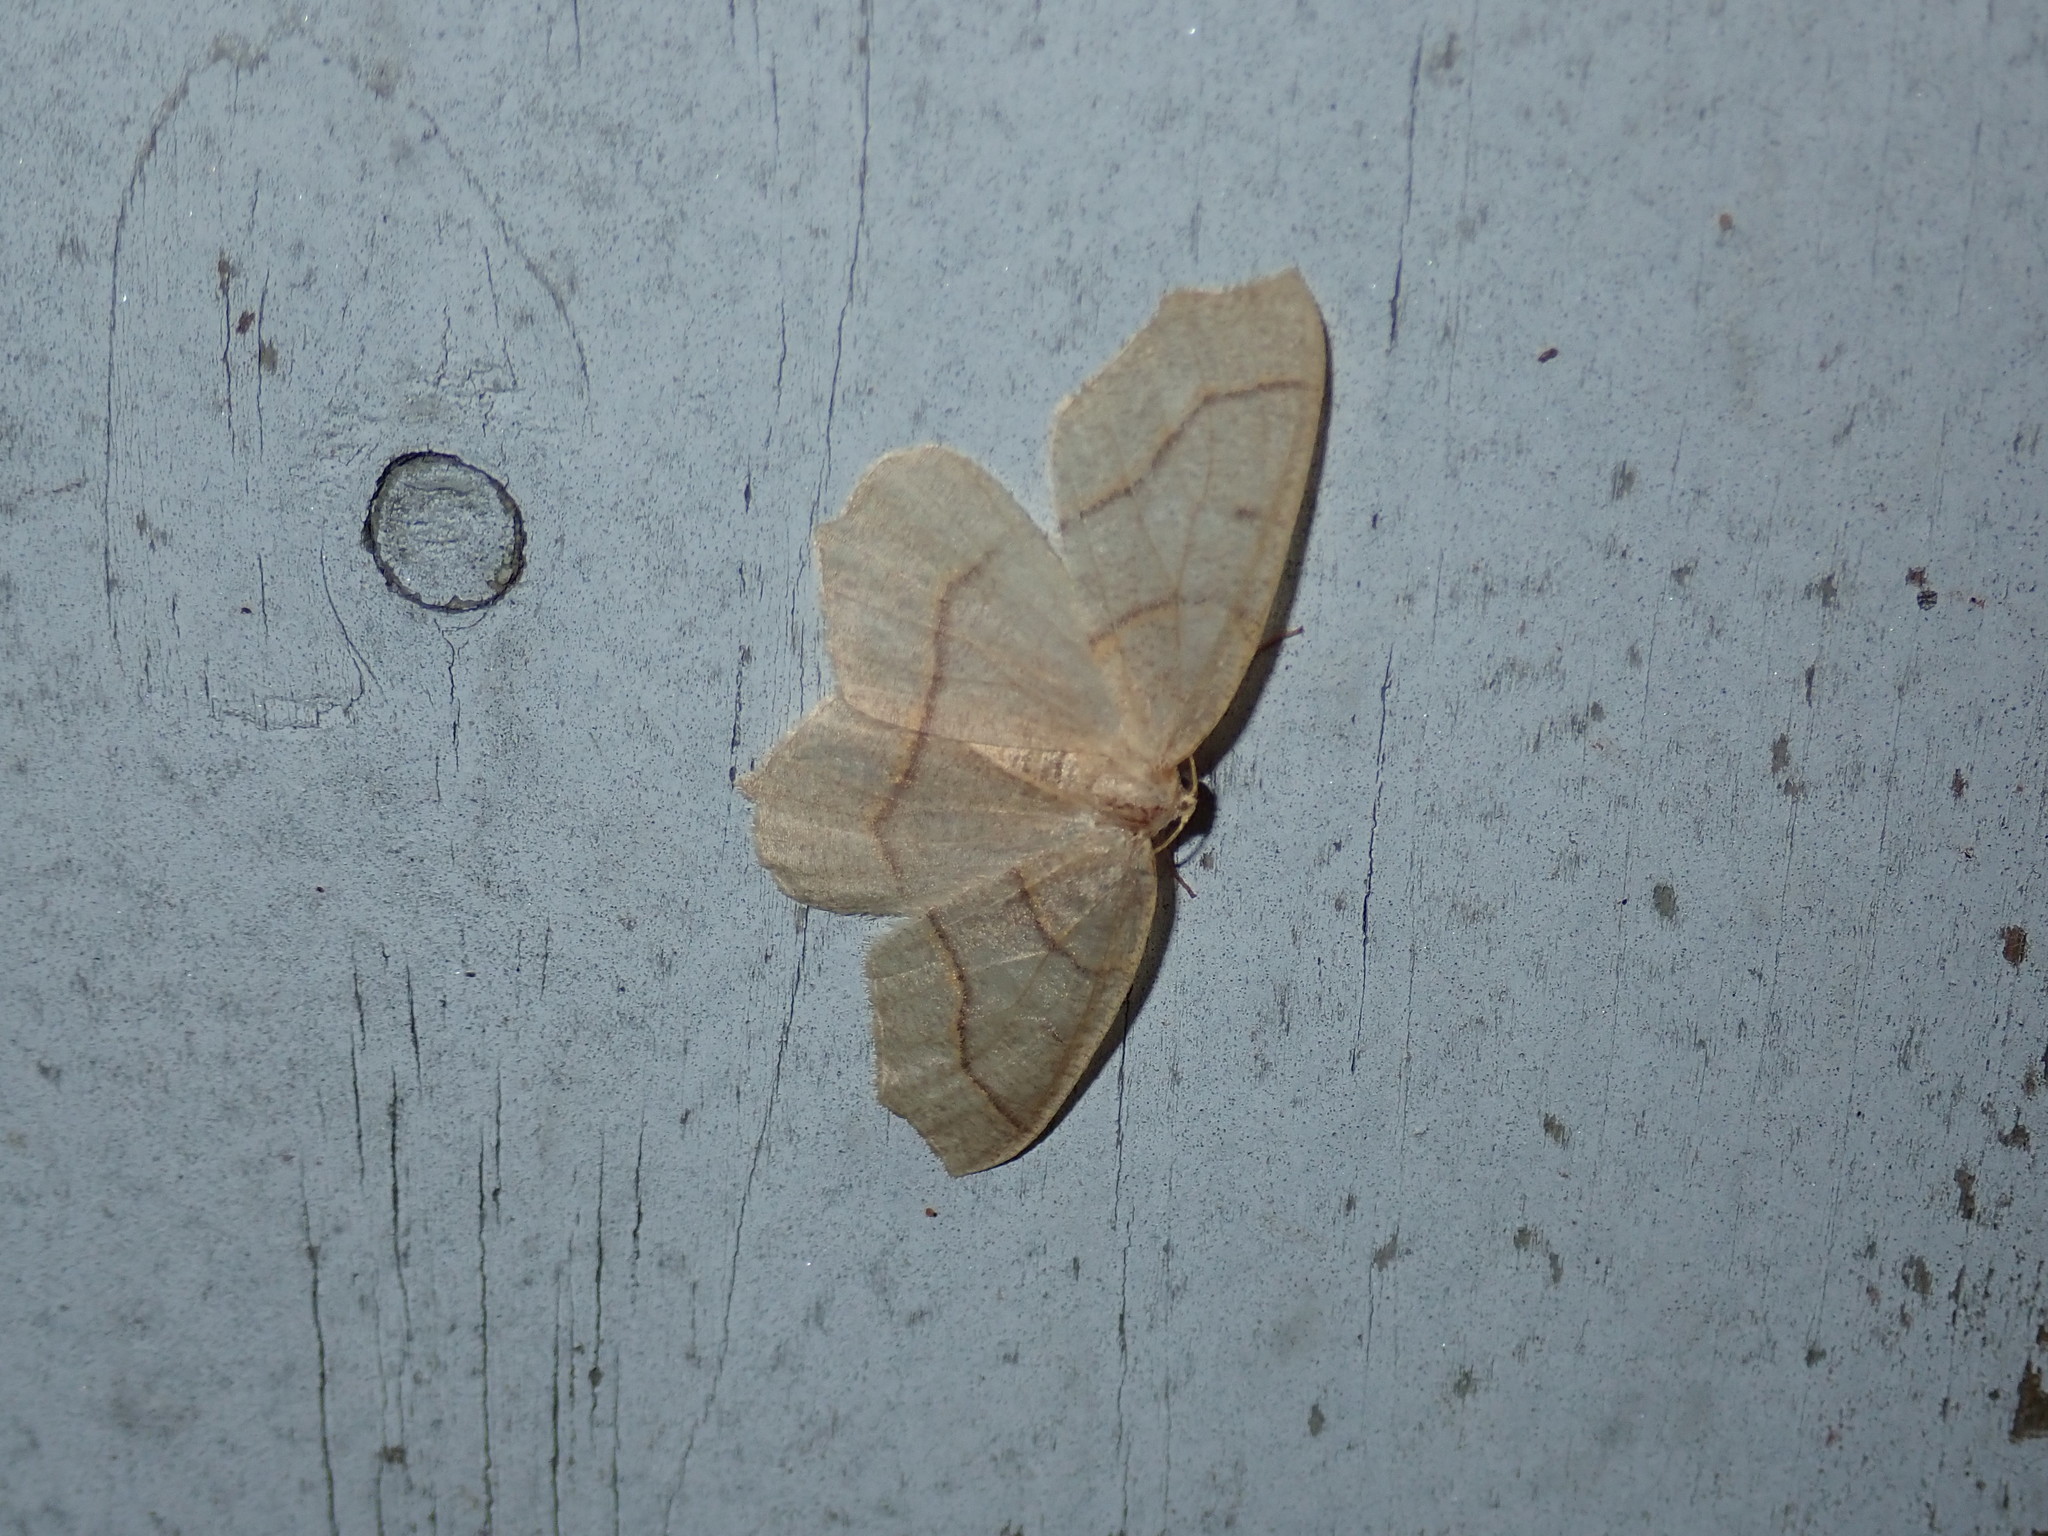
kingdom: Animalia
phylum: Arthropoda
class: Insecta
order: Lepidoptera
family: Geometridae
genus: Lambdina
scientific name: Lambdina fiscellaria
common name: Hemlock looper
